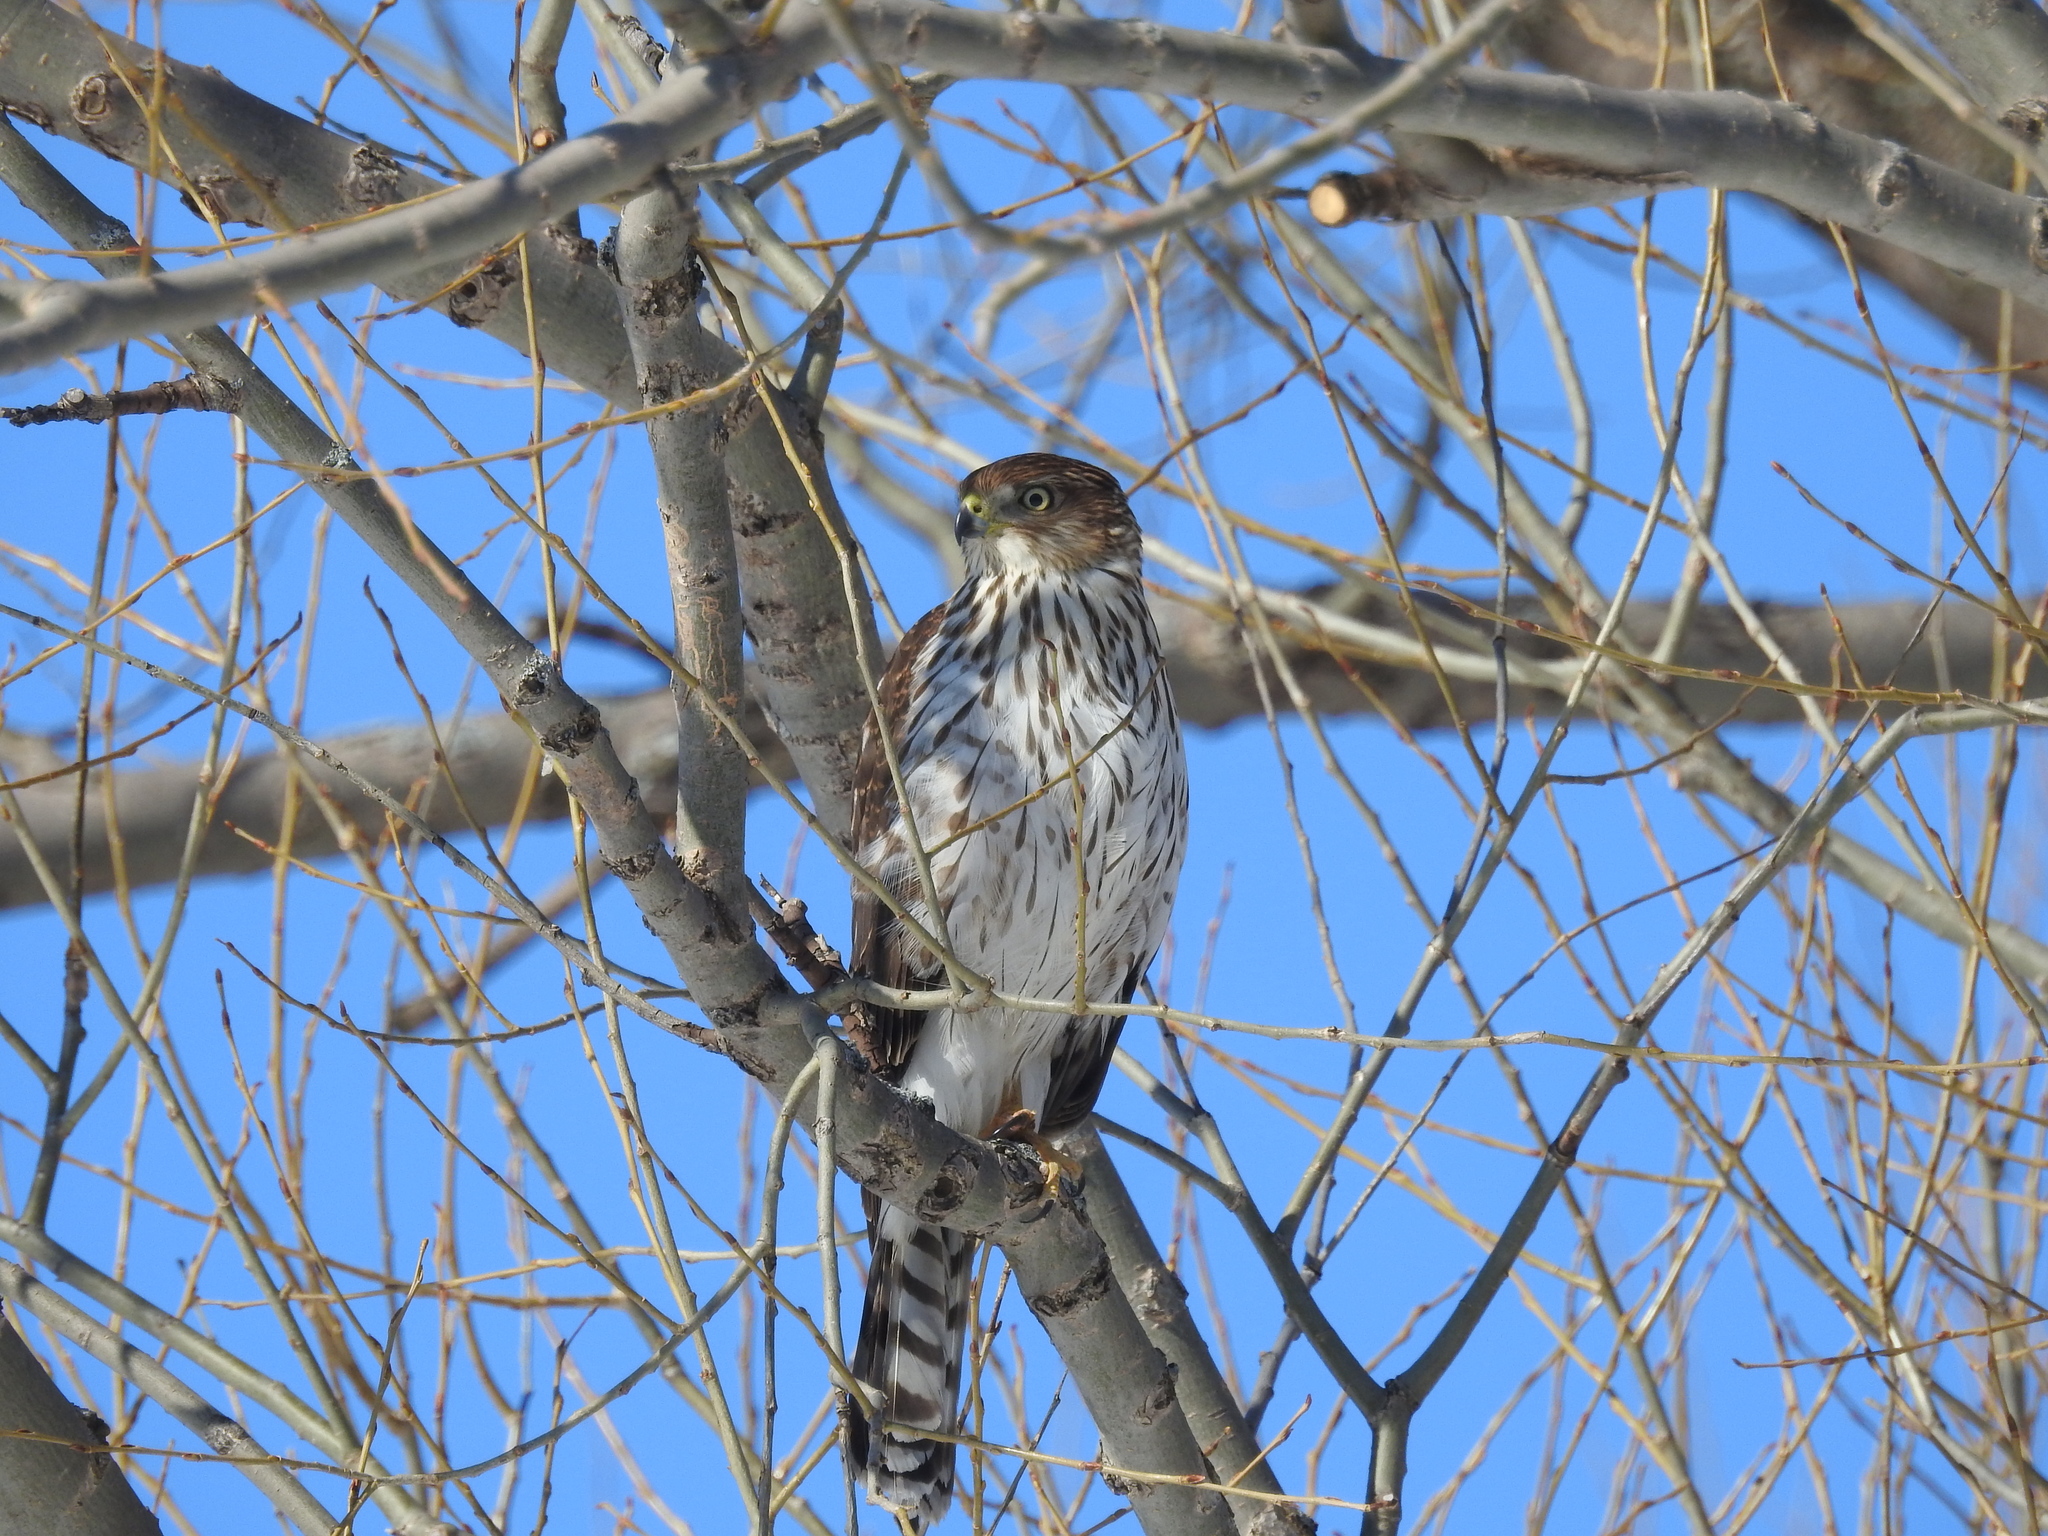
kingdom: Animalia
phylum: Chordata
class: Aves
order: Accipitriformes
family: Accipitridae
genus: Accipiter
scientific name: Accipiter cooperii
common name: Cooper's hawk
